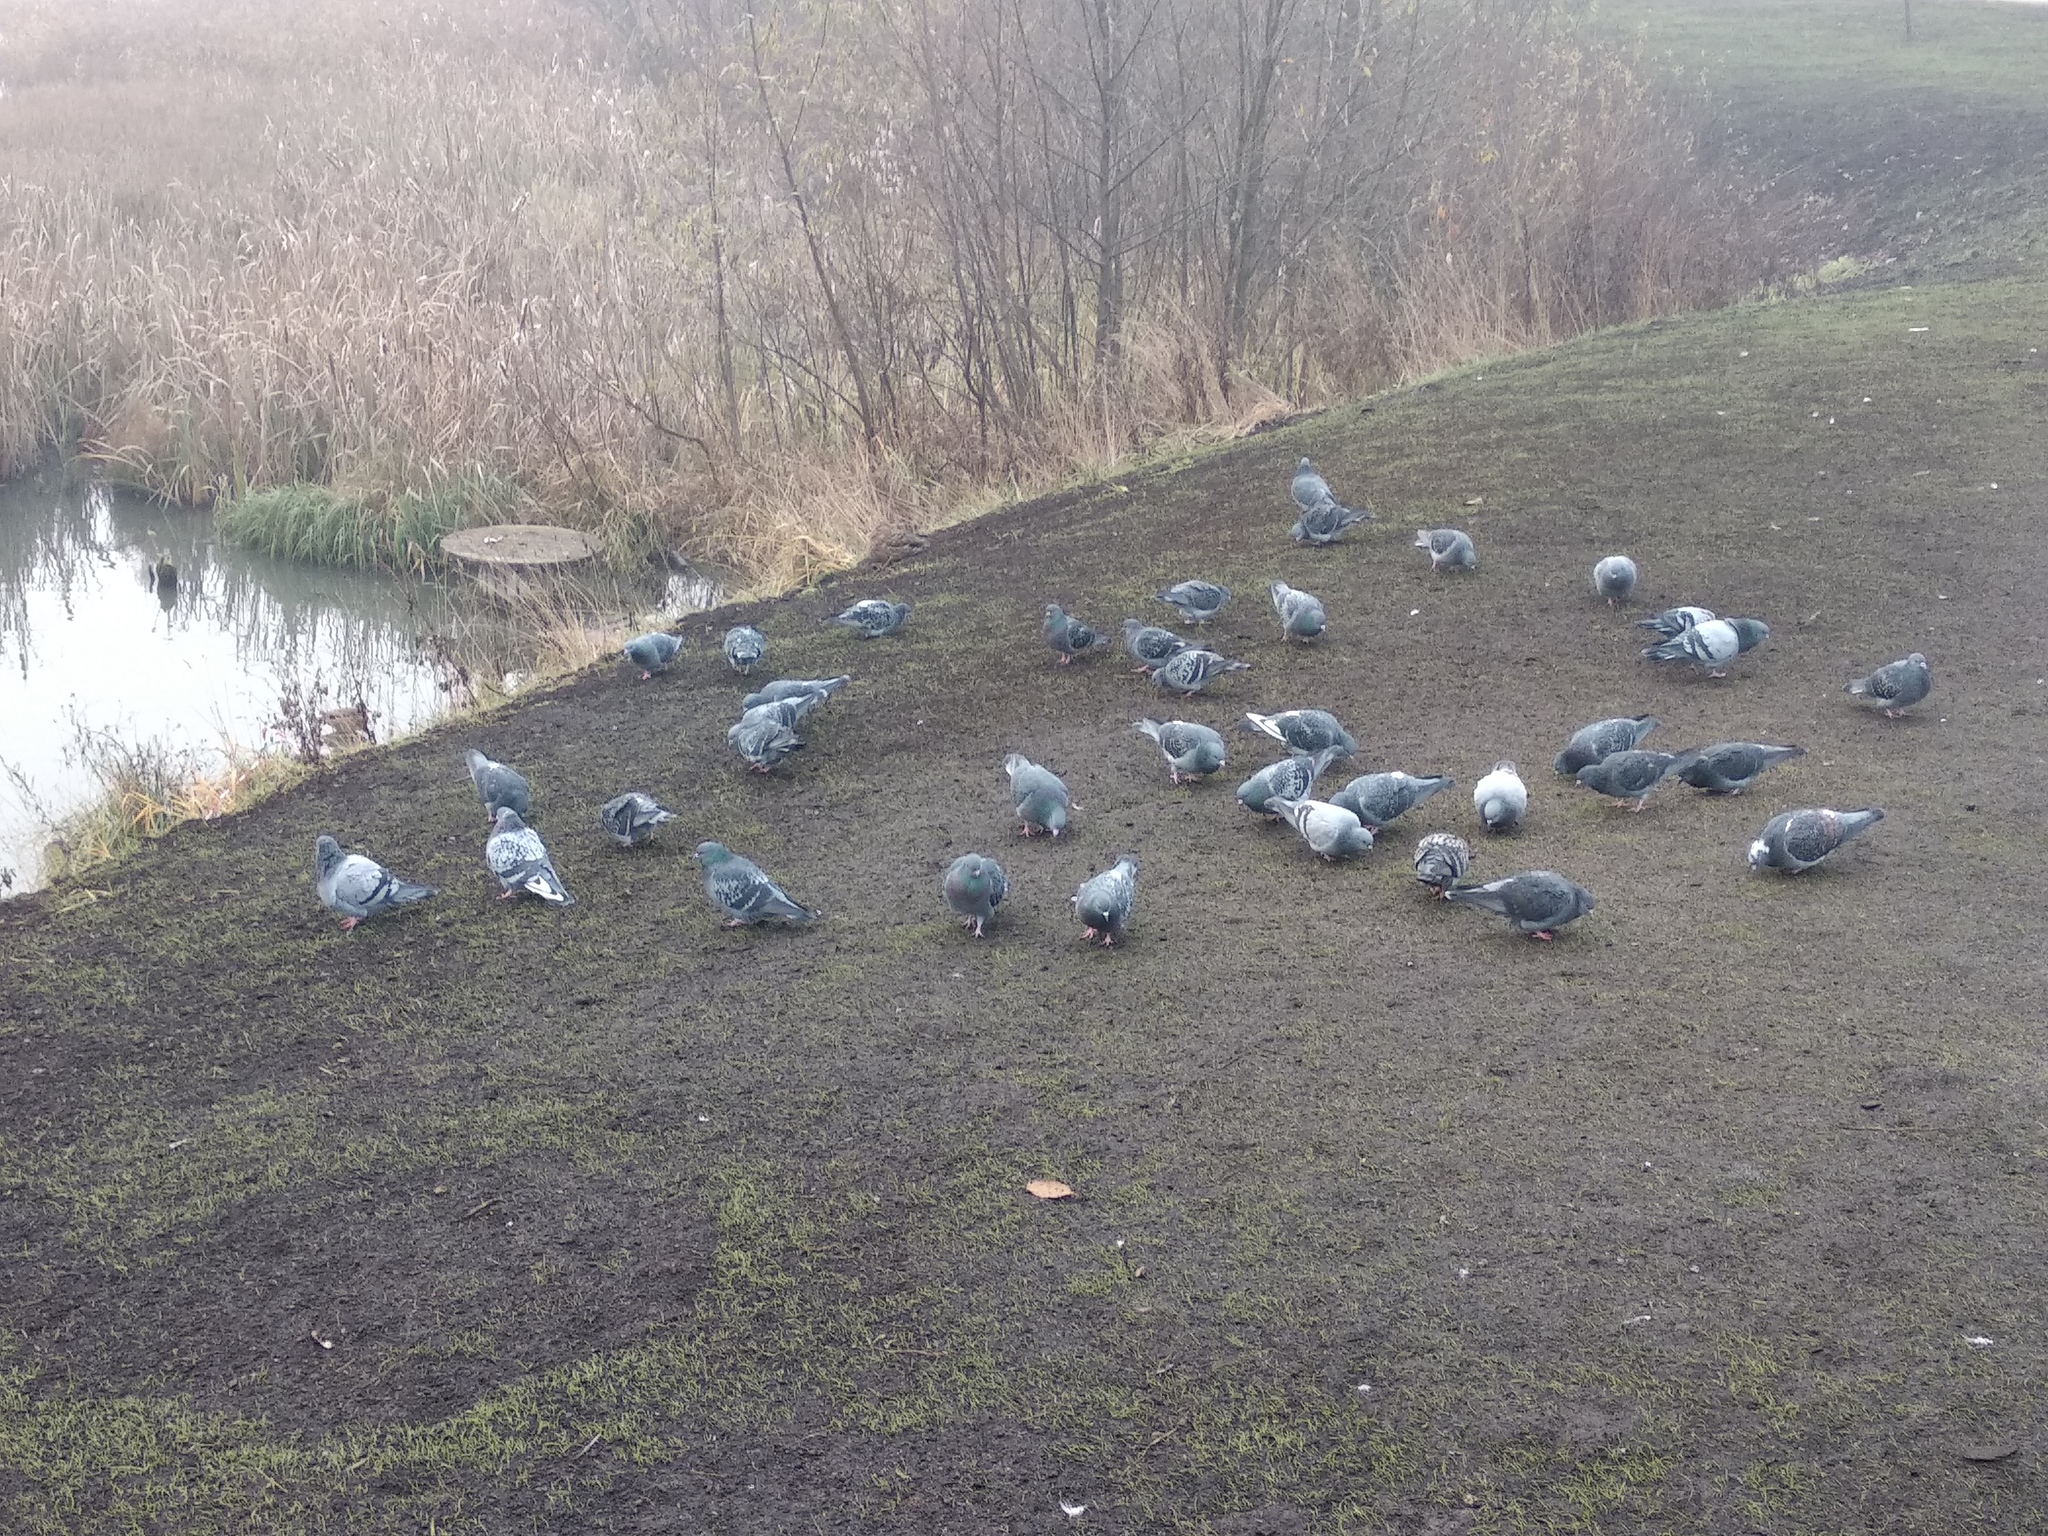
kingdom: Animalia
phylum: Chordata
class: Aves
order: Columbiformes
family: Columbidae
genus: Columba
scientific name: Columba livia
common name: Rock pigeon
